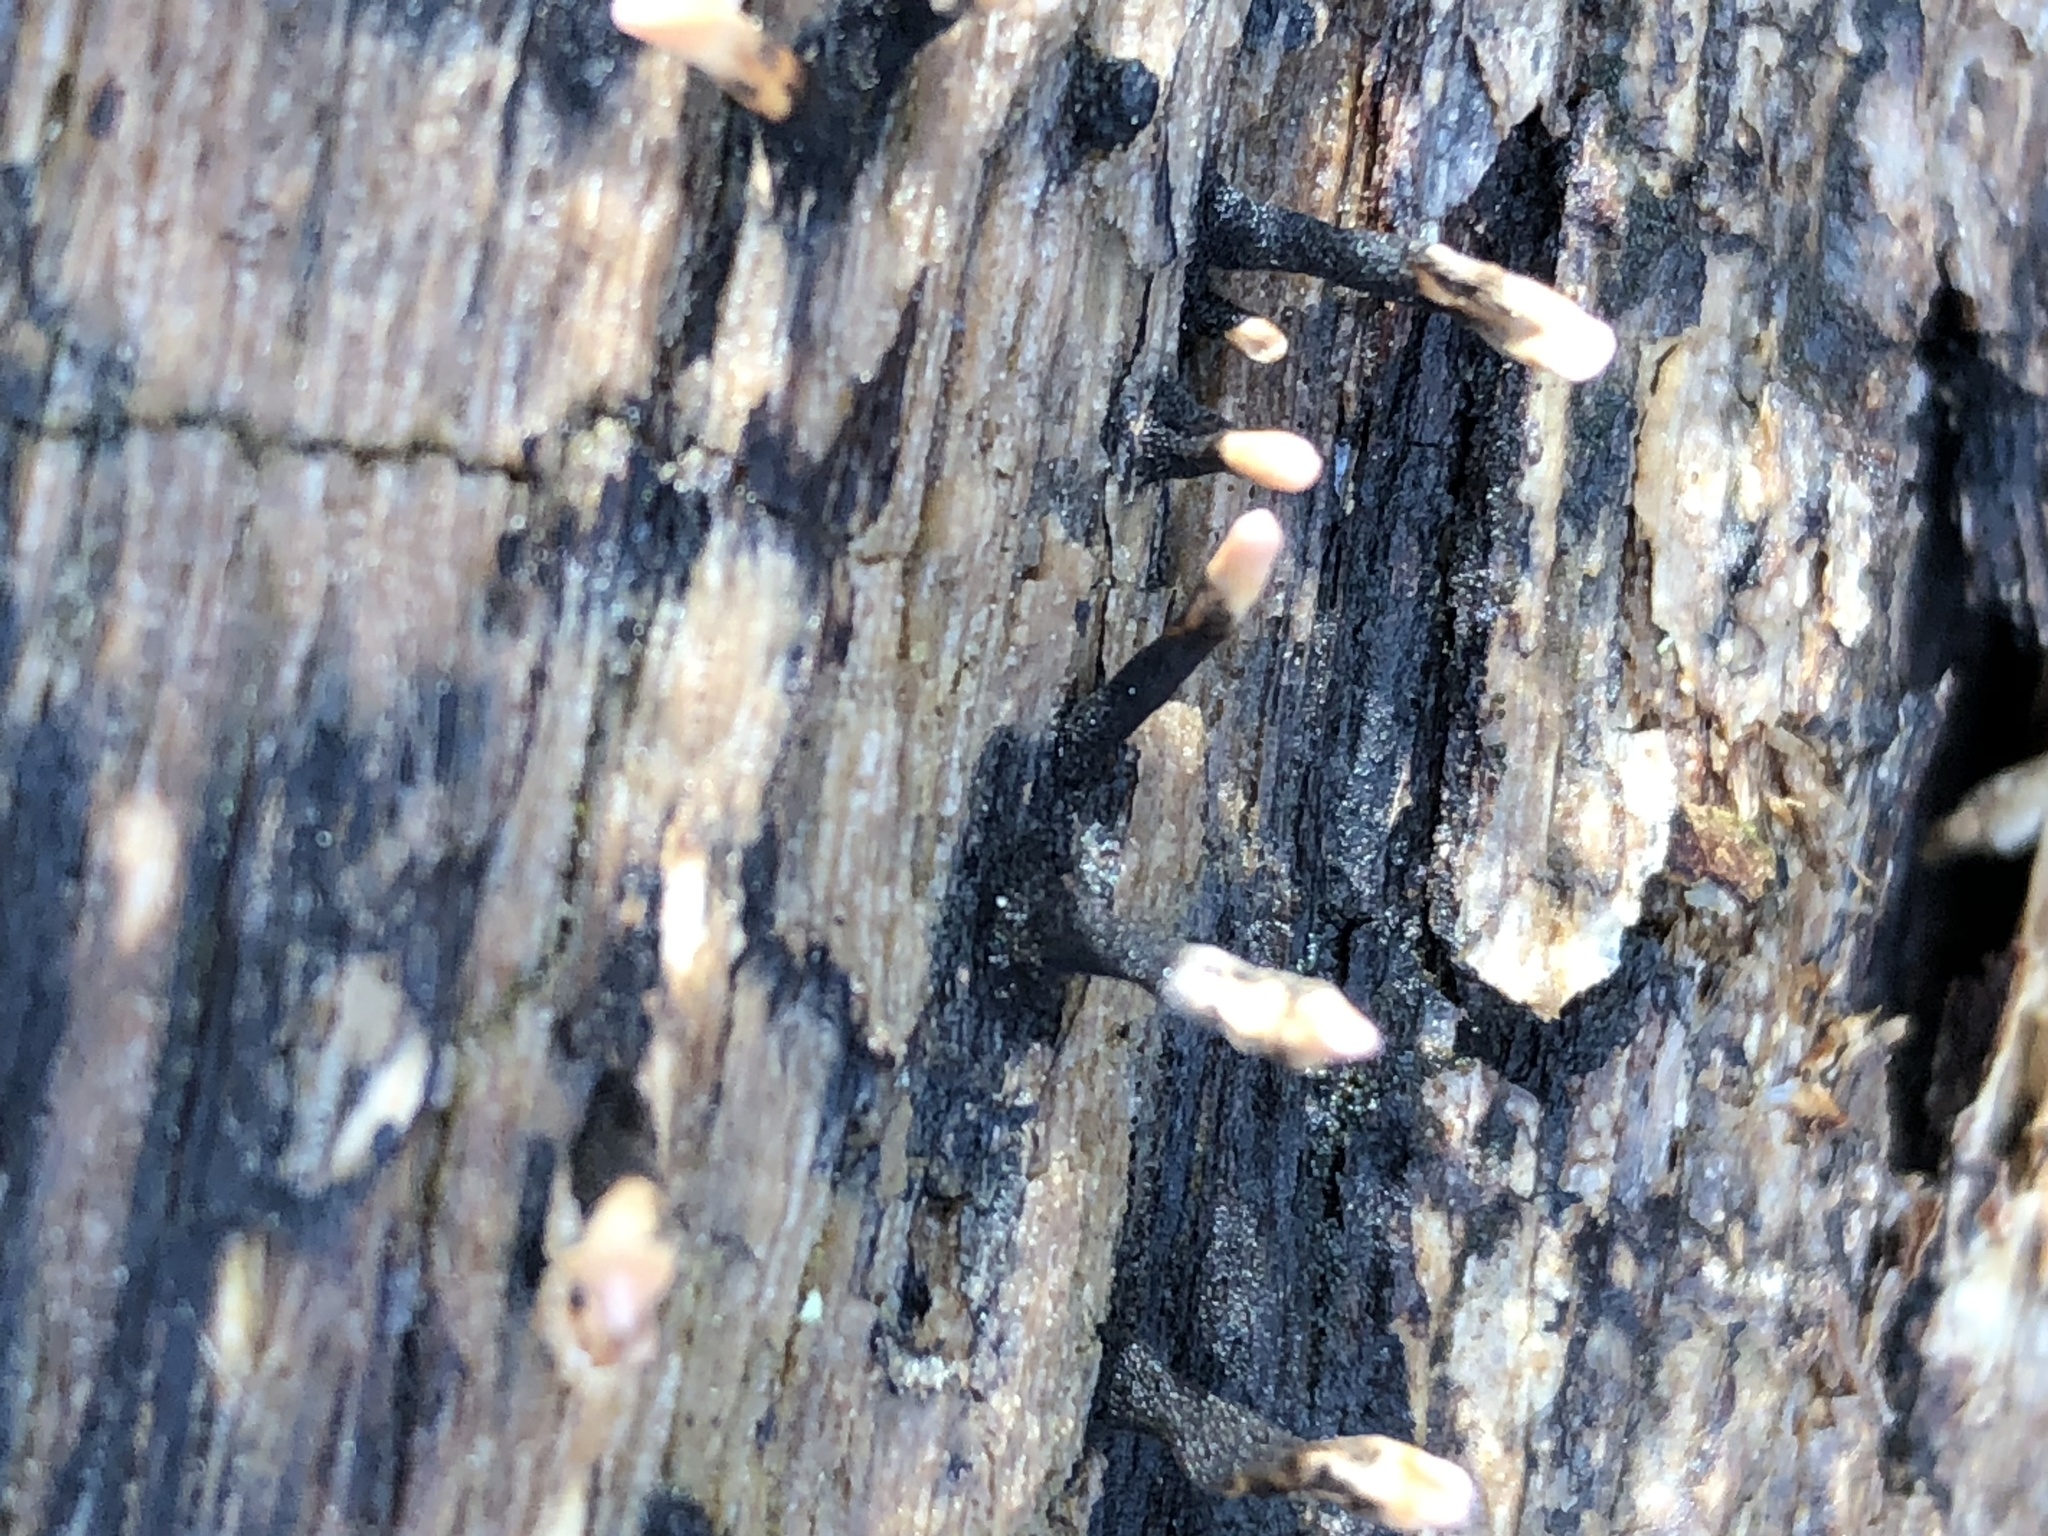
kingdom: Fungi
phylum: Ascomycota
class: Sordariomycetes
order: Xylariales
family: Xylariaceae
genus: Xylaria
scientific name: Xylaria cubensis
